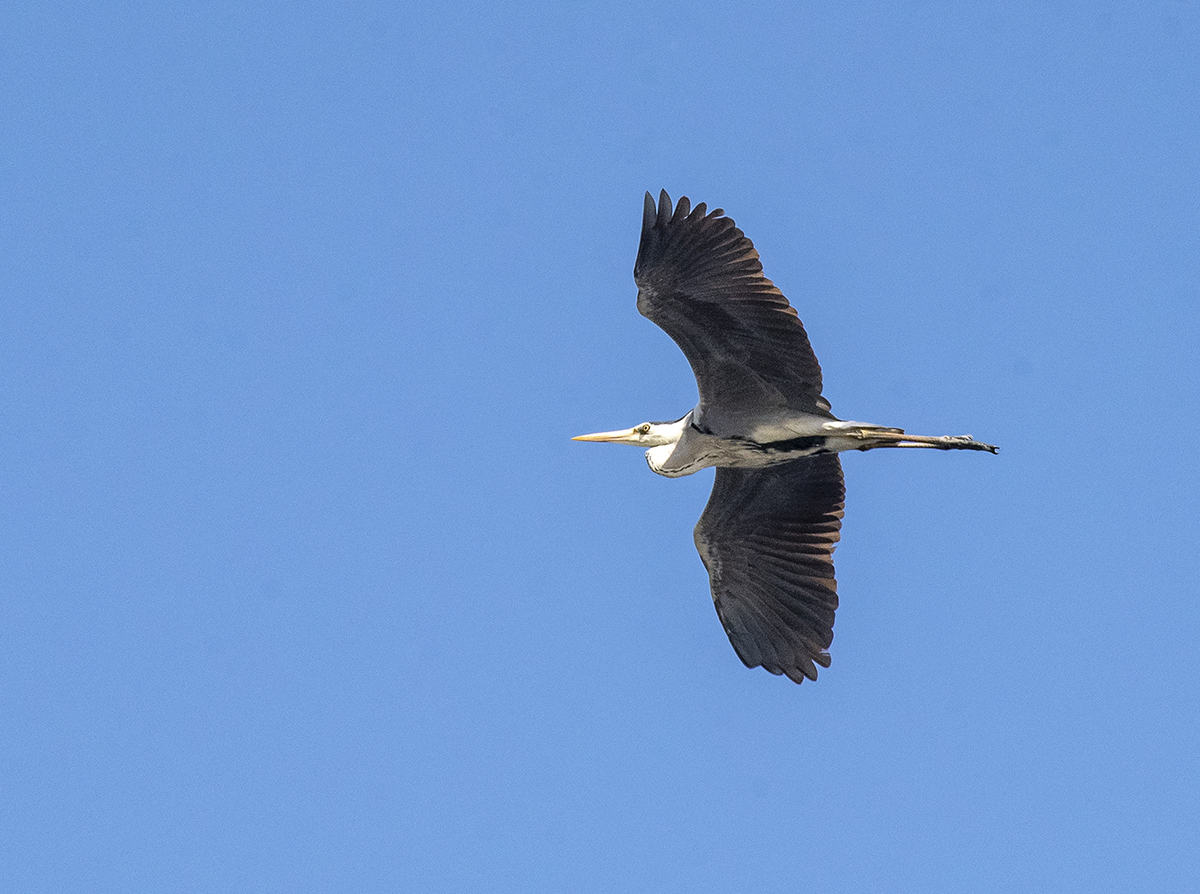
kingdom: Animalia
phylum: Chordata
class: Aves
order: Pelecaniformes
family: Ardeidae
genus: Ardea
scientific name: Ardea cinerea
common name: Grey heron
